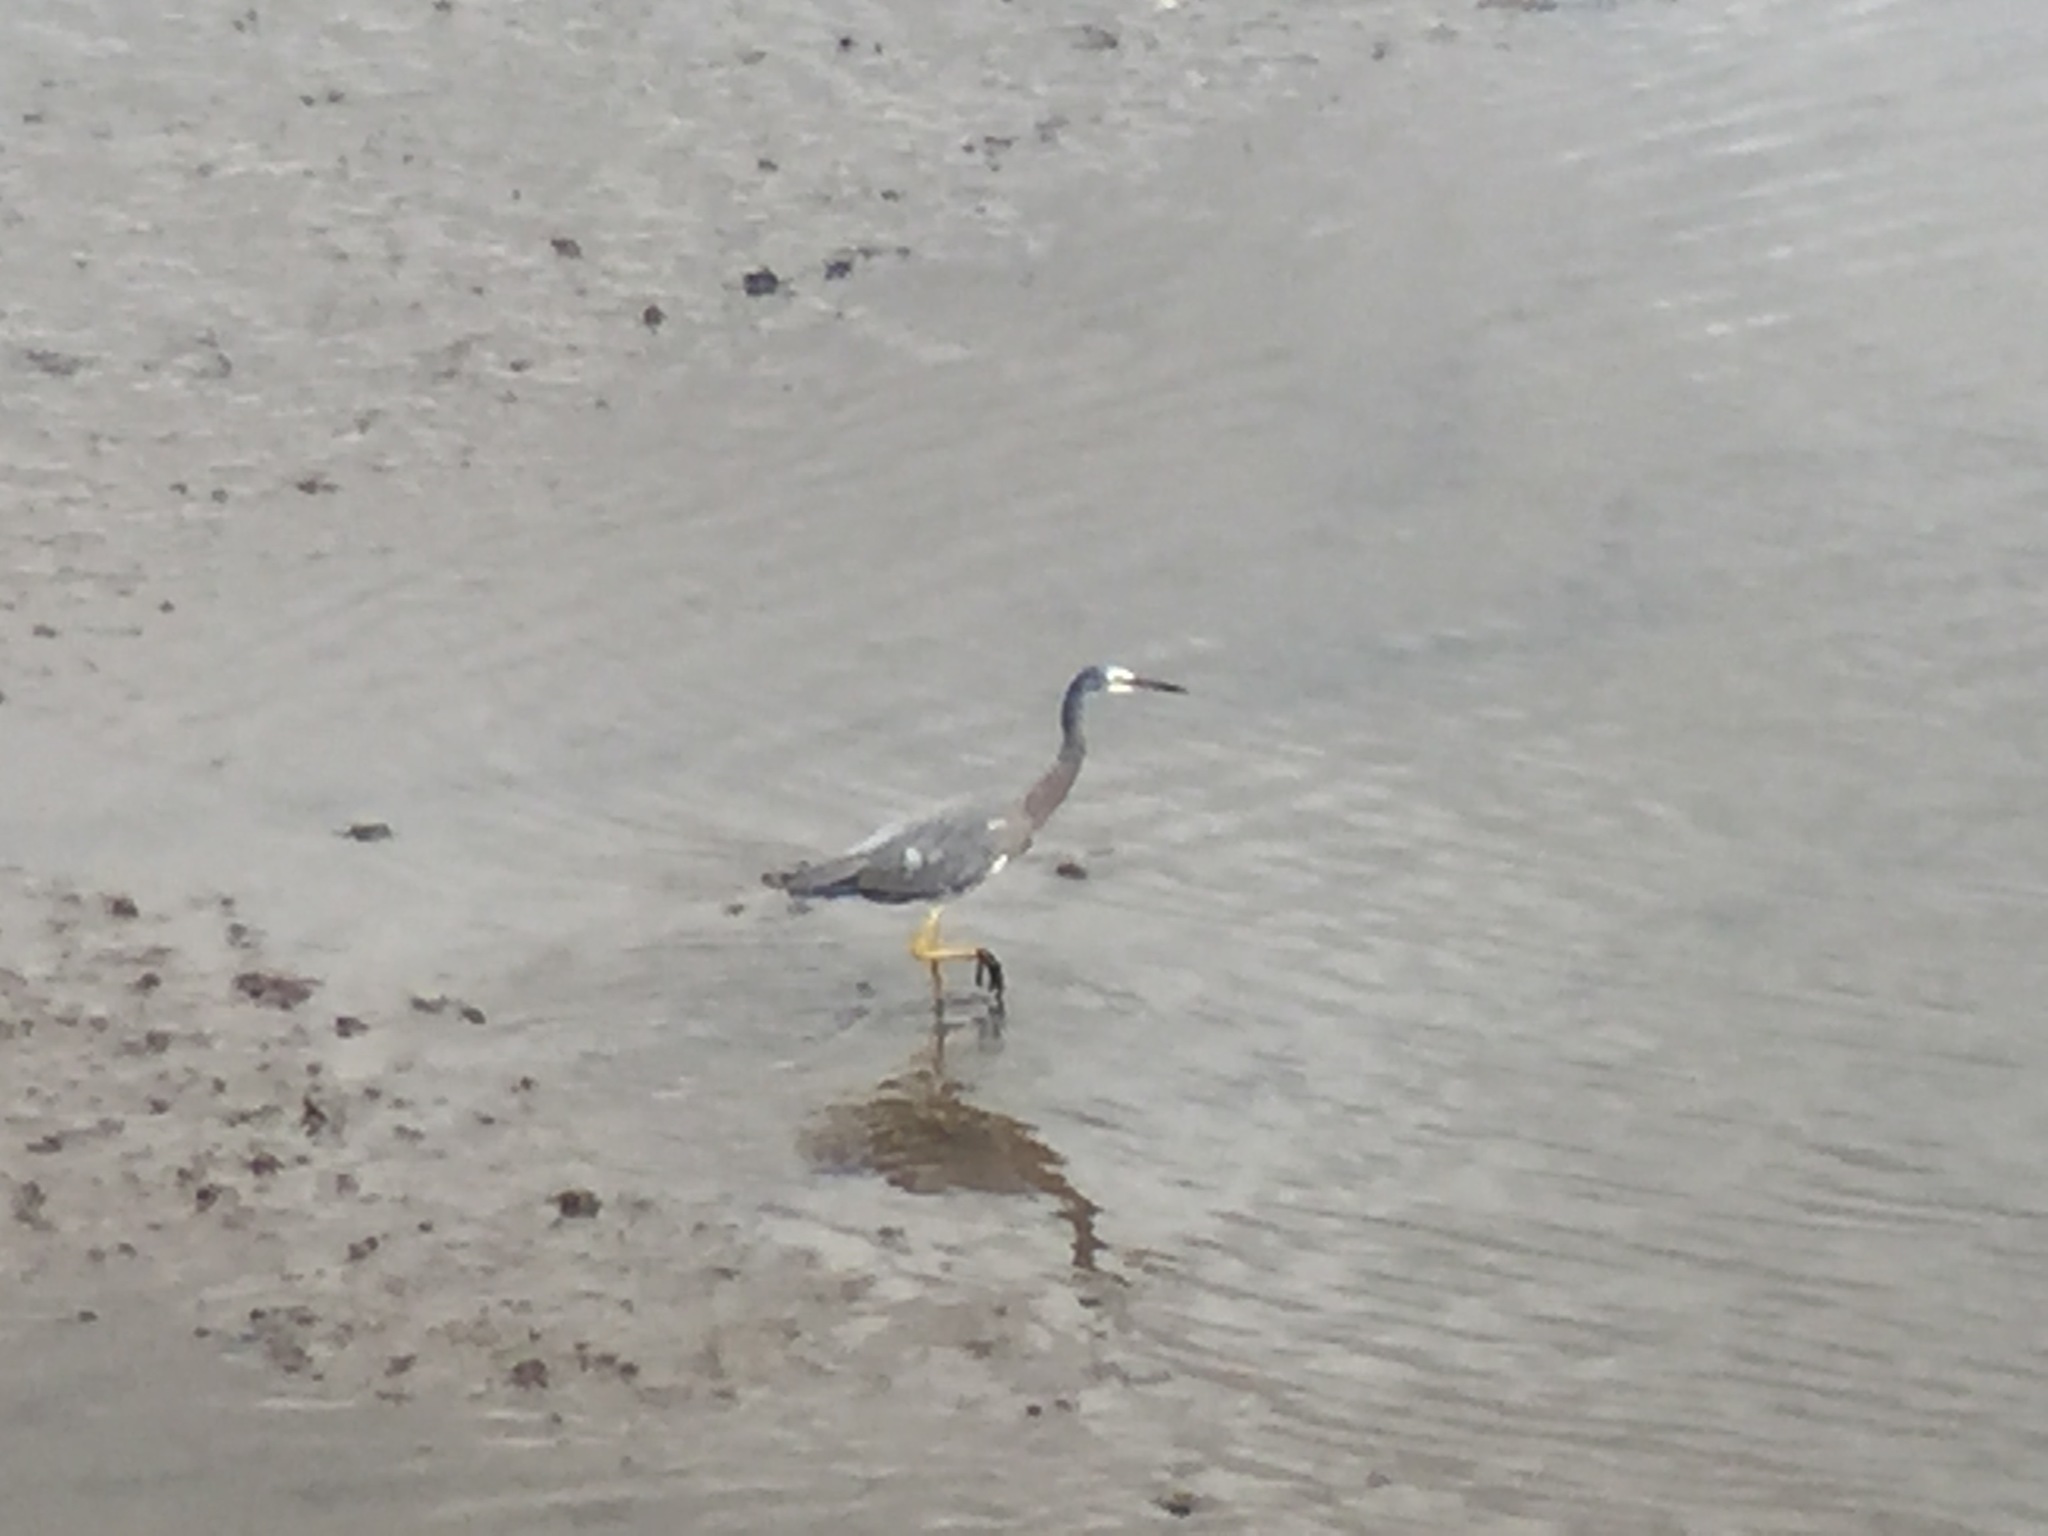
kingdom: Animalia
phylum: Chordata
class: Aves
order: Pelecaniformes
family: Ardeidae
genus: Egretta
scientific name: Egretta novaehollandiae
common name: White-faced heron
